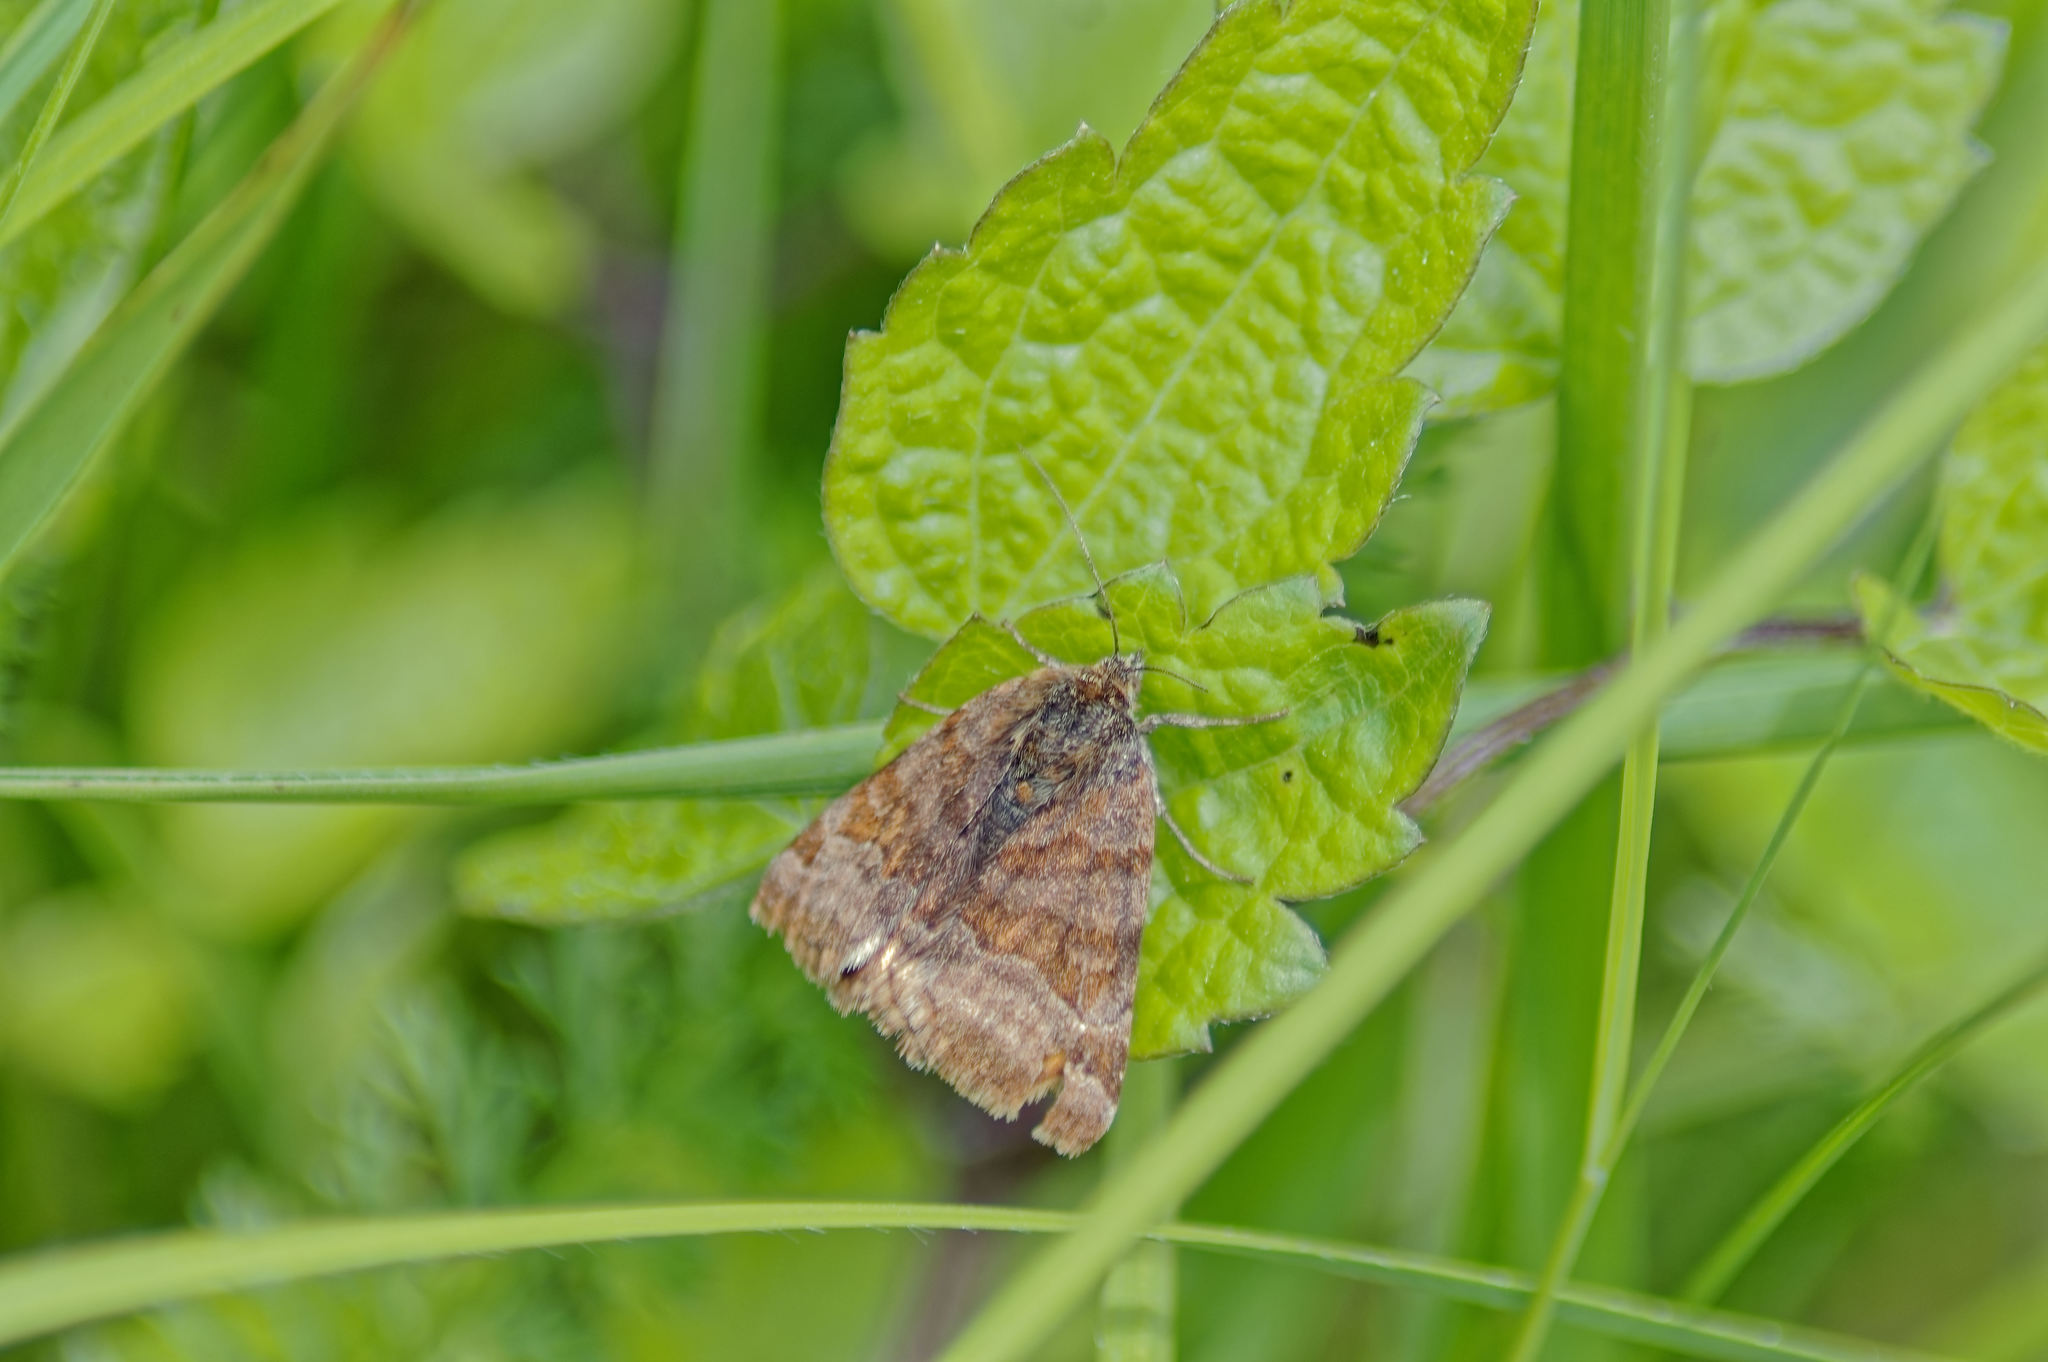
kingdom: Animalia
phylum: Arthropoda
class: Insecta
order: Lepidoptera
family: Erebidae
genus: Euclidia
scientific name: Euclidia glyphica
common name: Burnet companion
